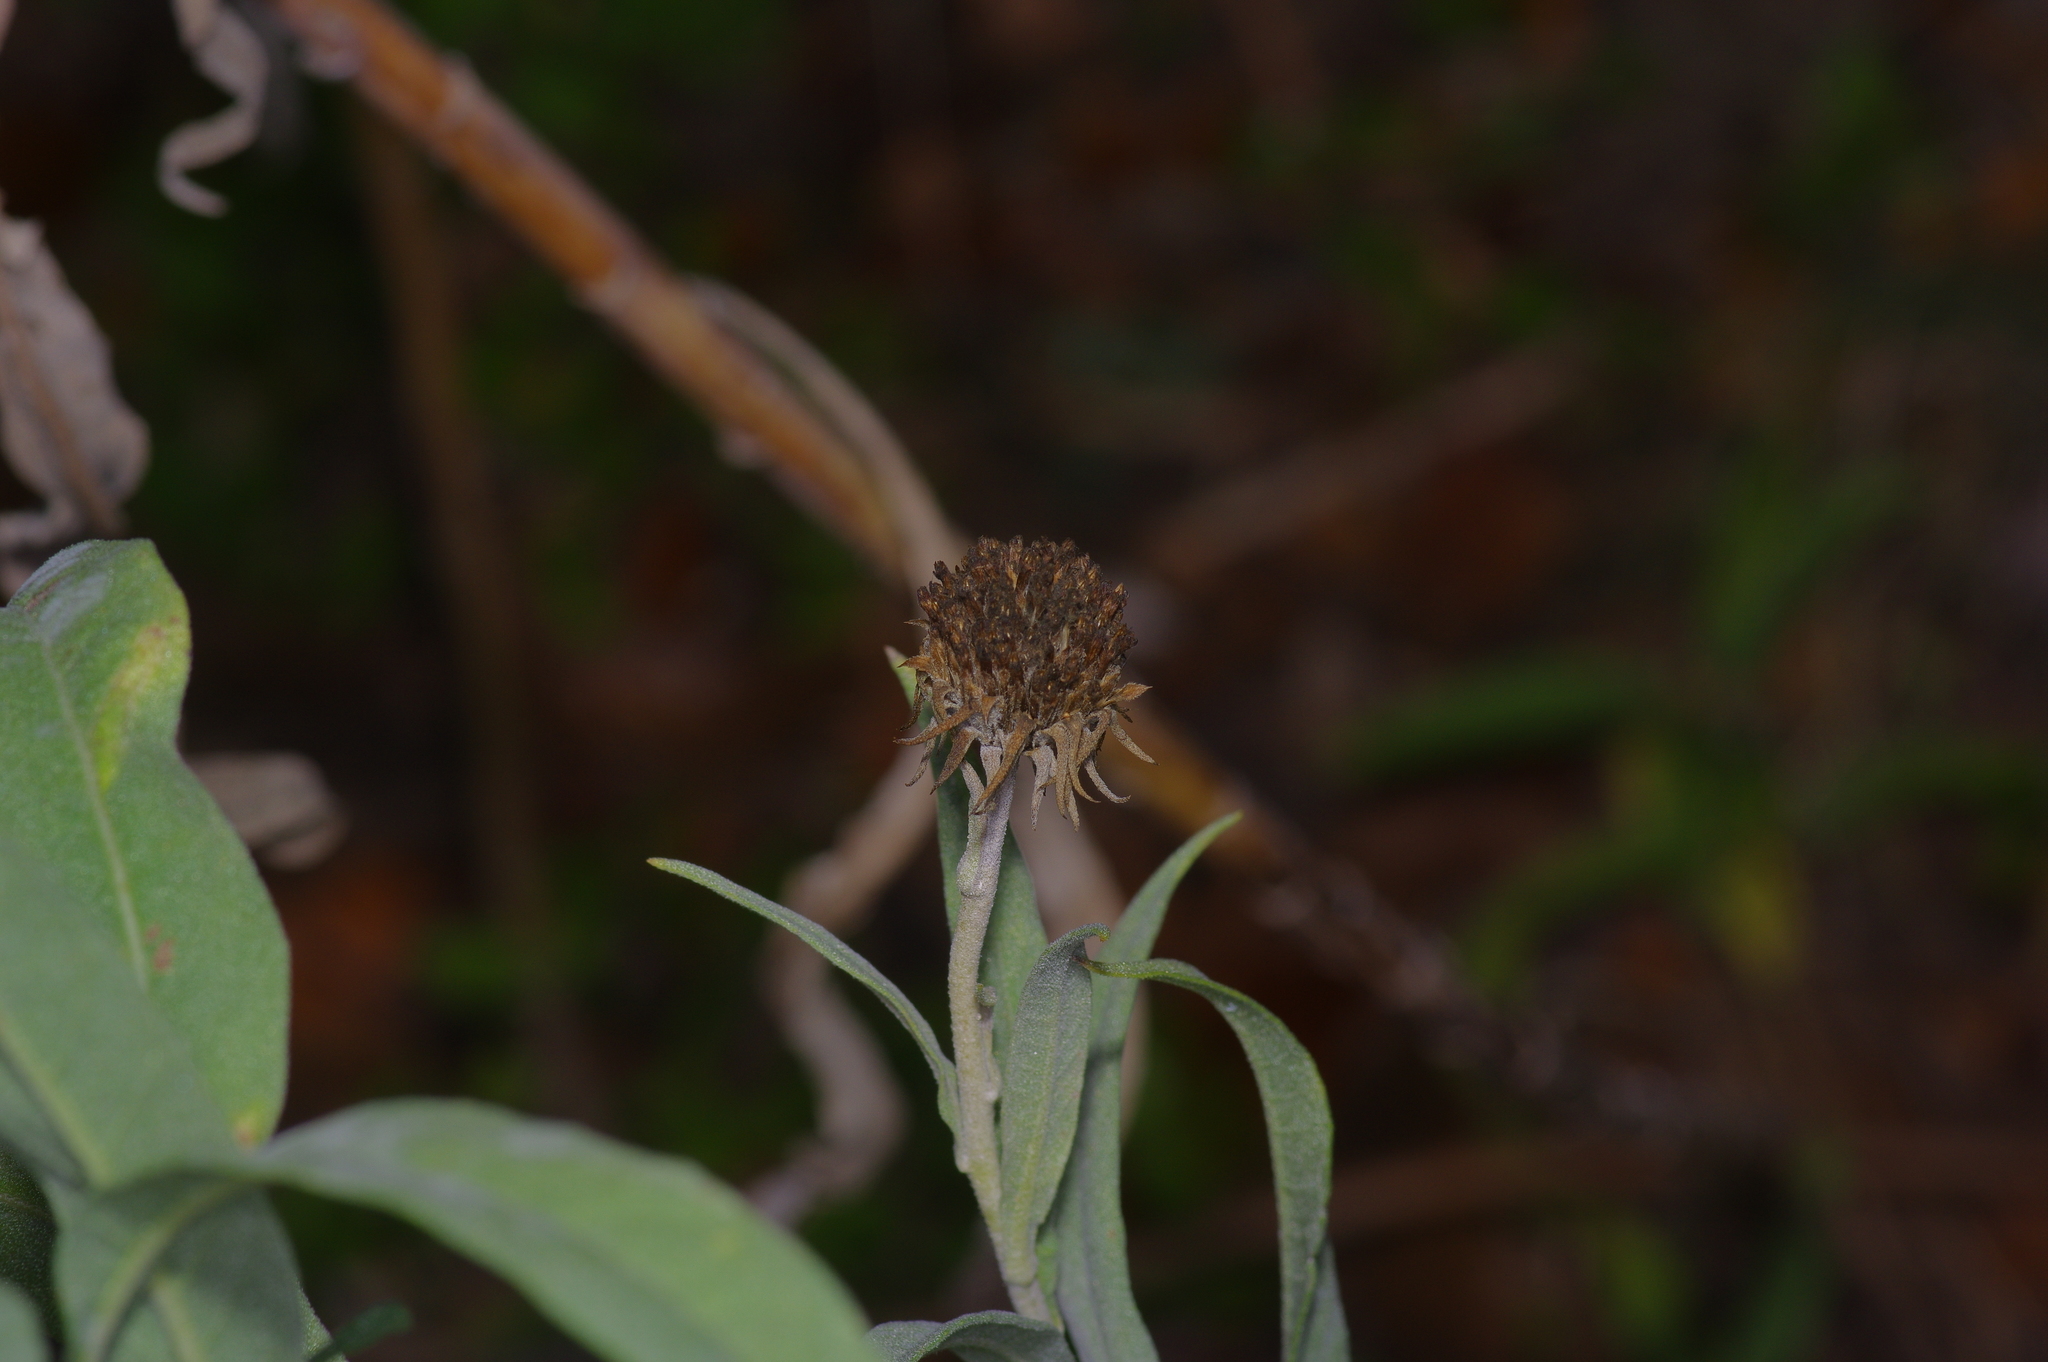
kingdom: Plantae
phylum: Tracheophyta
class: Magnoliopsida
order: Asterales
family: Asteraceae
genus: Helianthus
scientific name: Helianthus maximiliani
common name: Maximilian's sunflower
